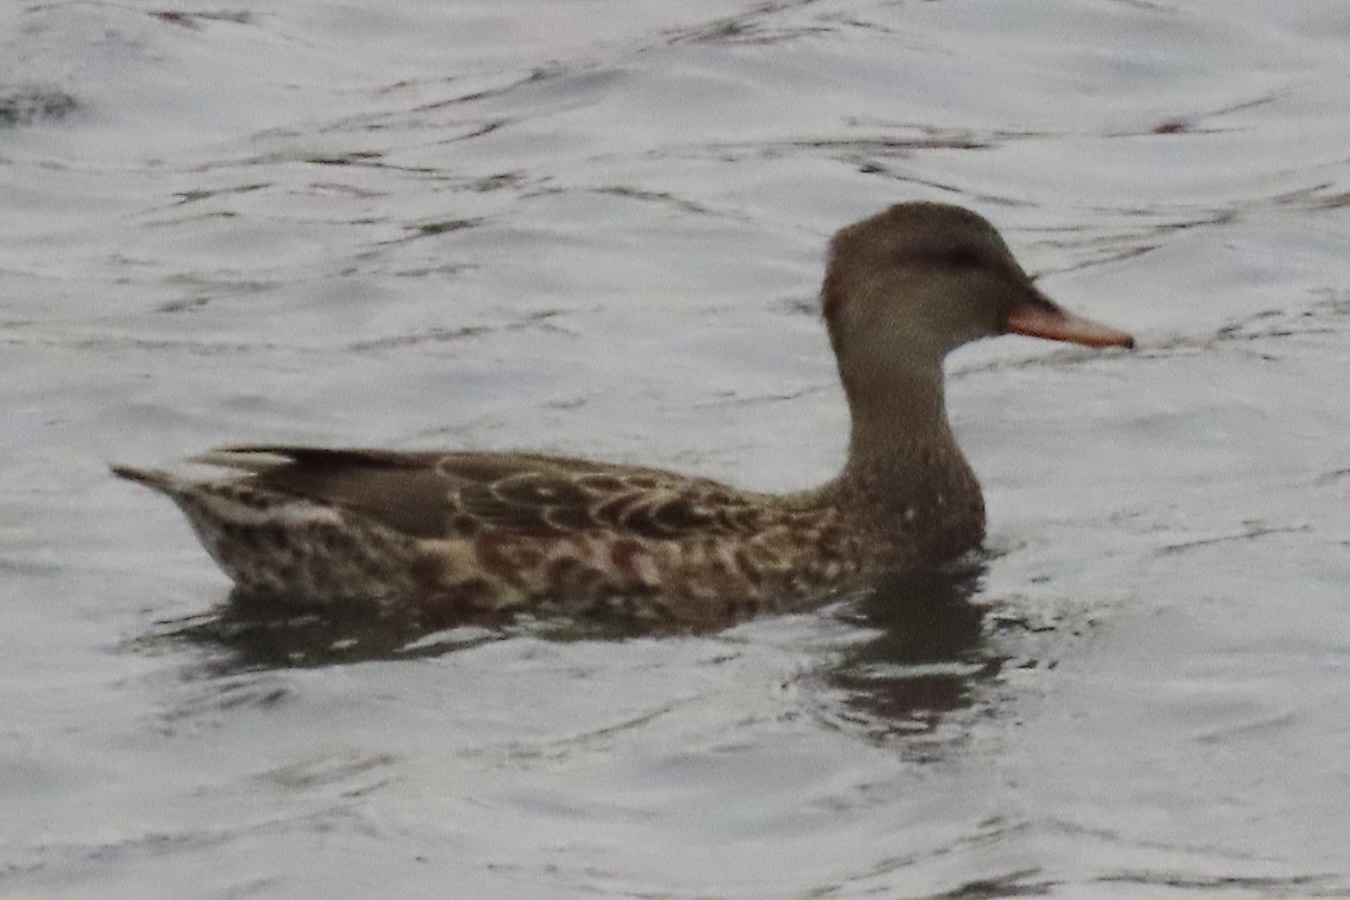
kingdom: Animalia
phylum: Chordata
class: Aves
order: Anseriformes
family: Anatidae
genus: Mareca
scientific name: Mareca strepera
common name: Gadwall
